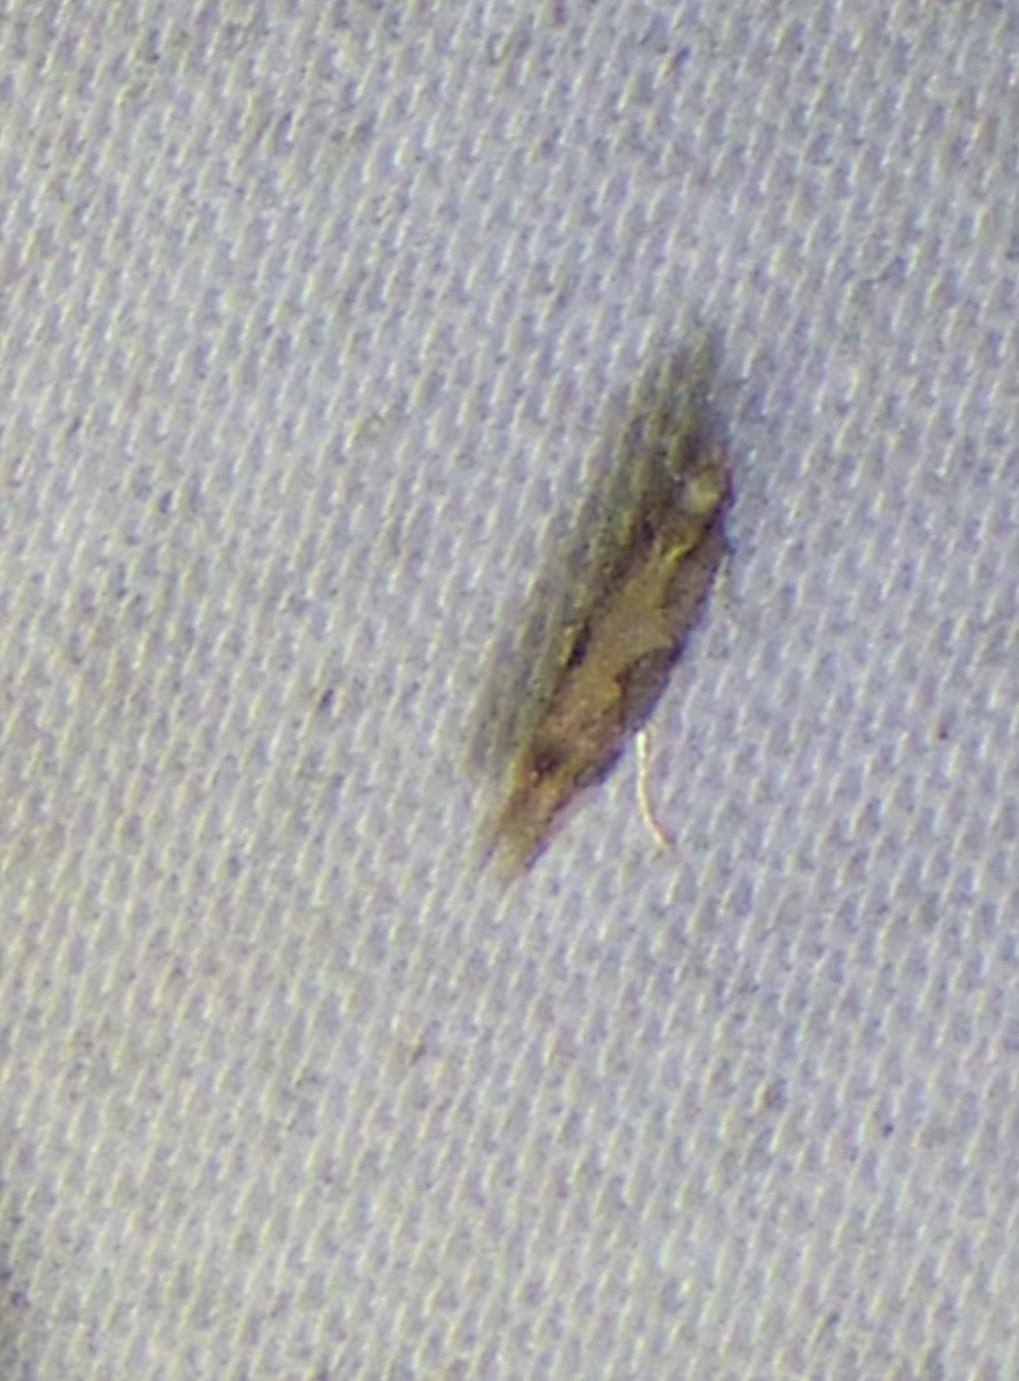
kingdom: Animalia
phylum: Arthropoda
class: Insecta
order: Lepidoptera
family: Plutellidae
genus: Plutella
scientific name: Plutella xylostella
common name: Diamond-back moth
